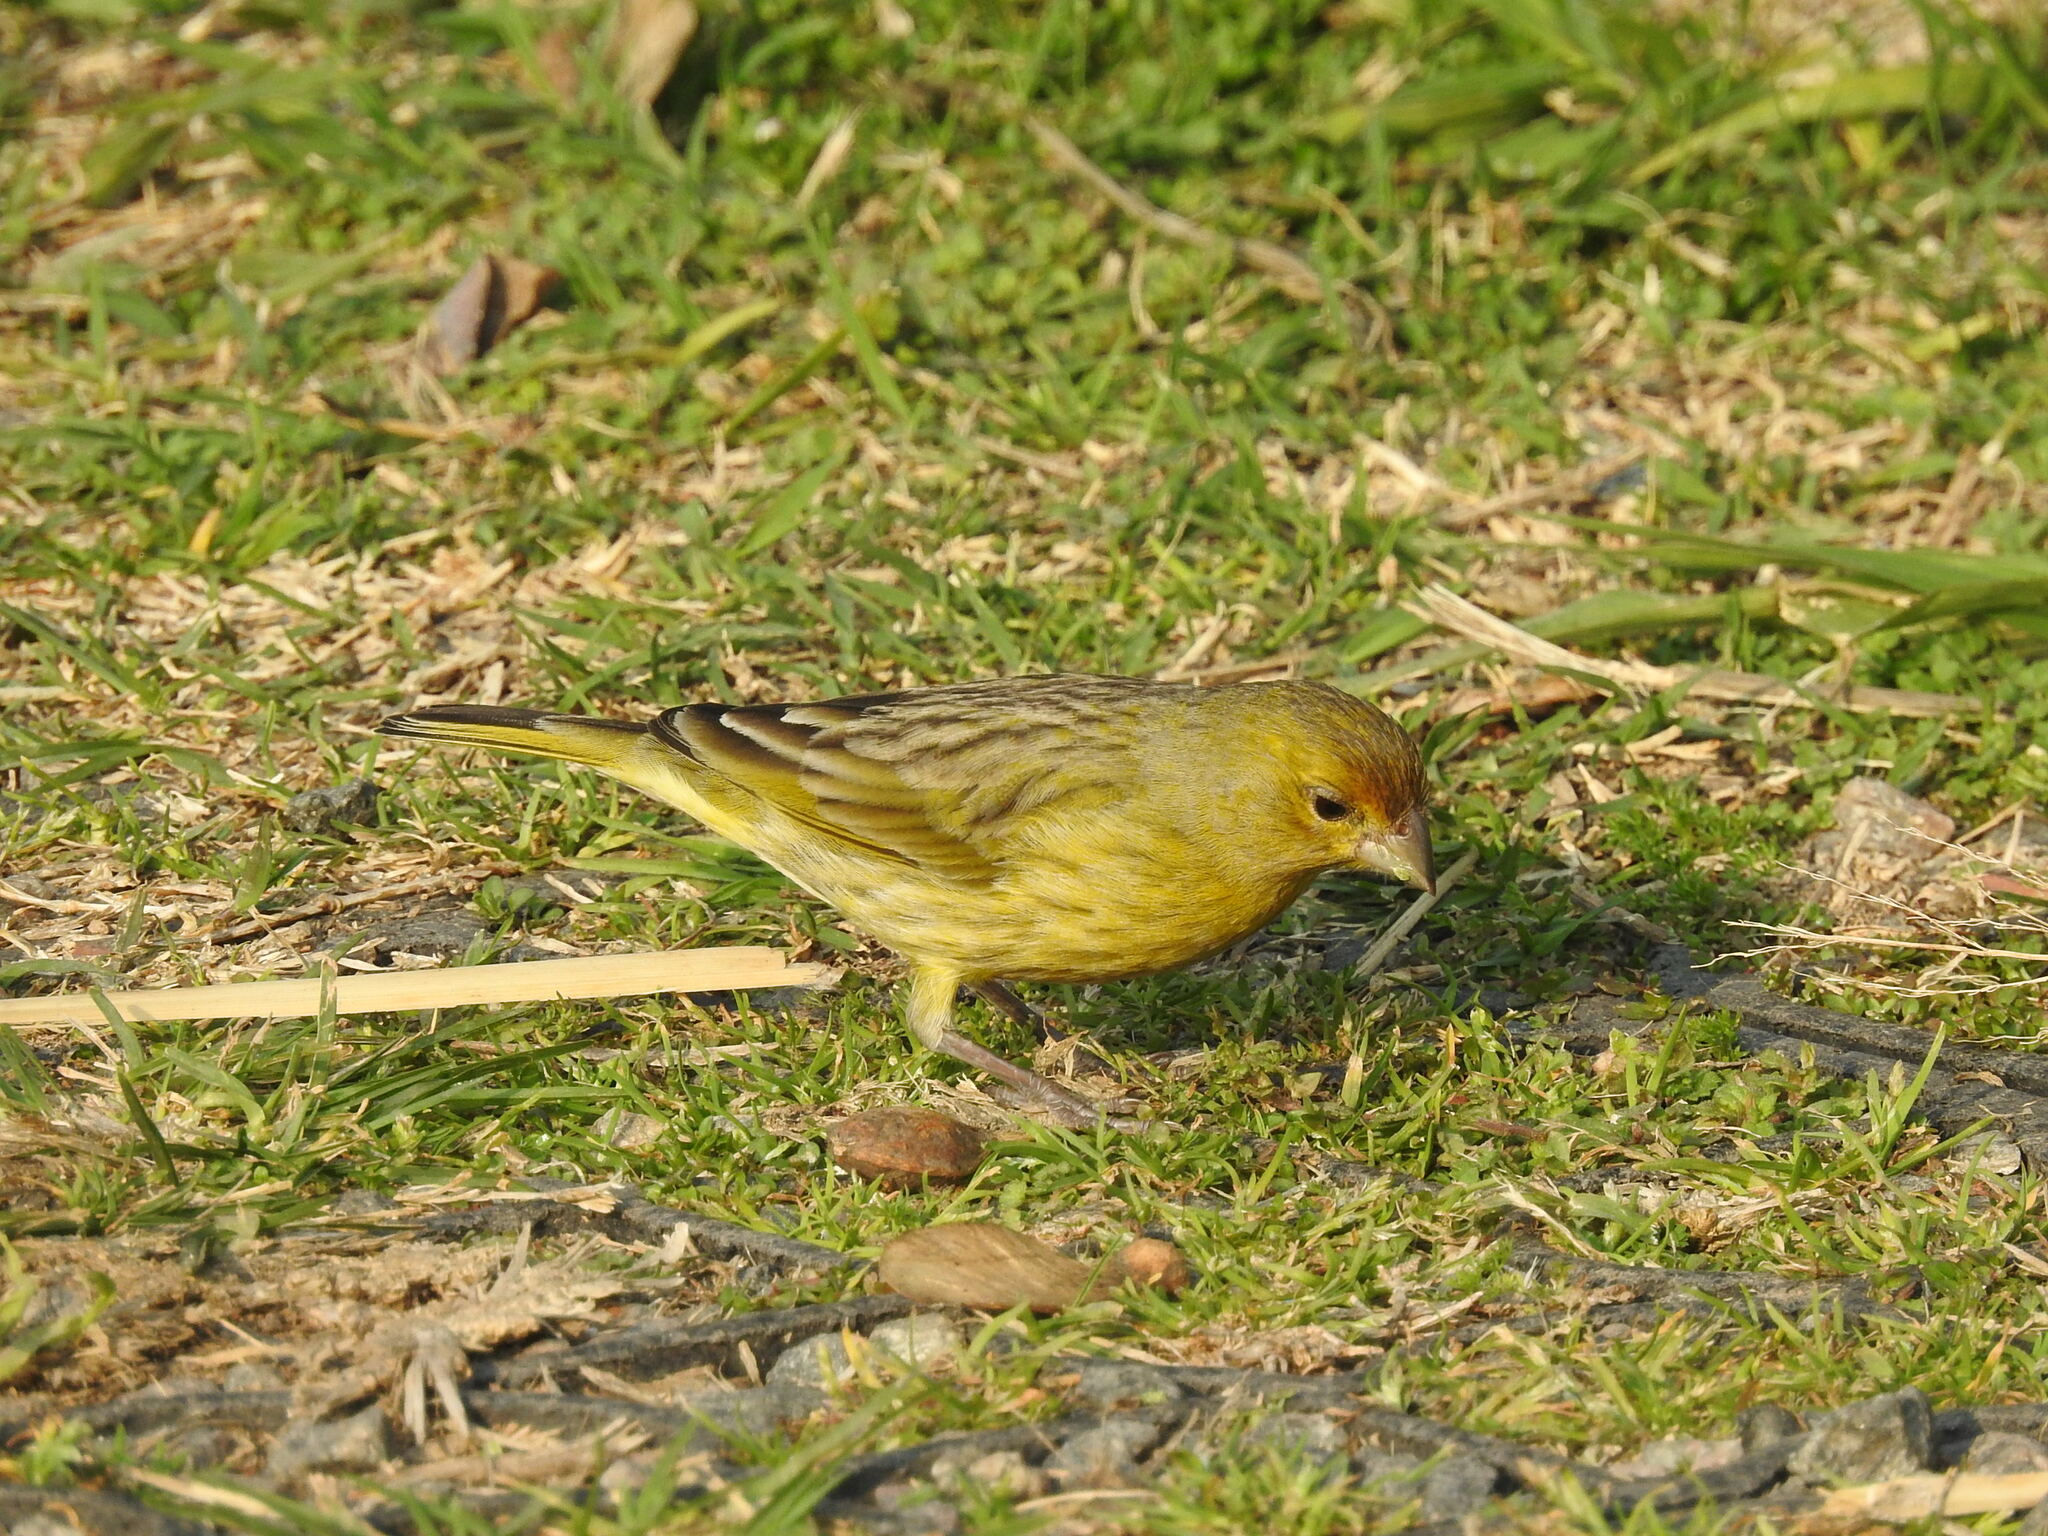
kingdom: Animalia
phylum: Chordata
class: Aves
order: Passeriformes
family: Thraupidae
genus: Sicalis
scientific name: Sicalis flaveola
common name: Saffron finch
